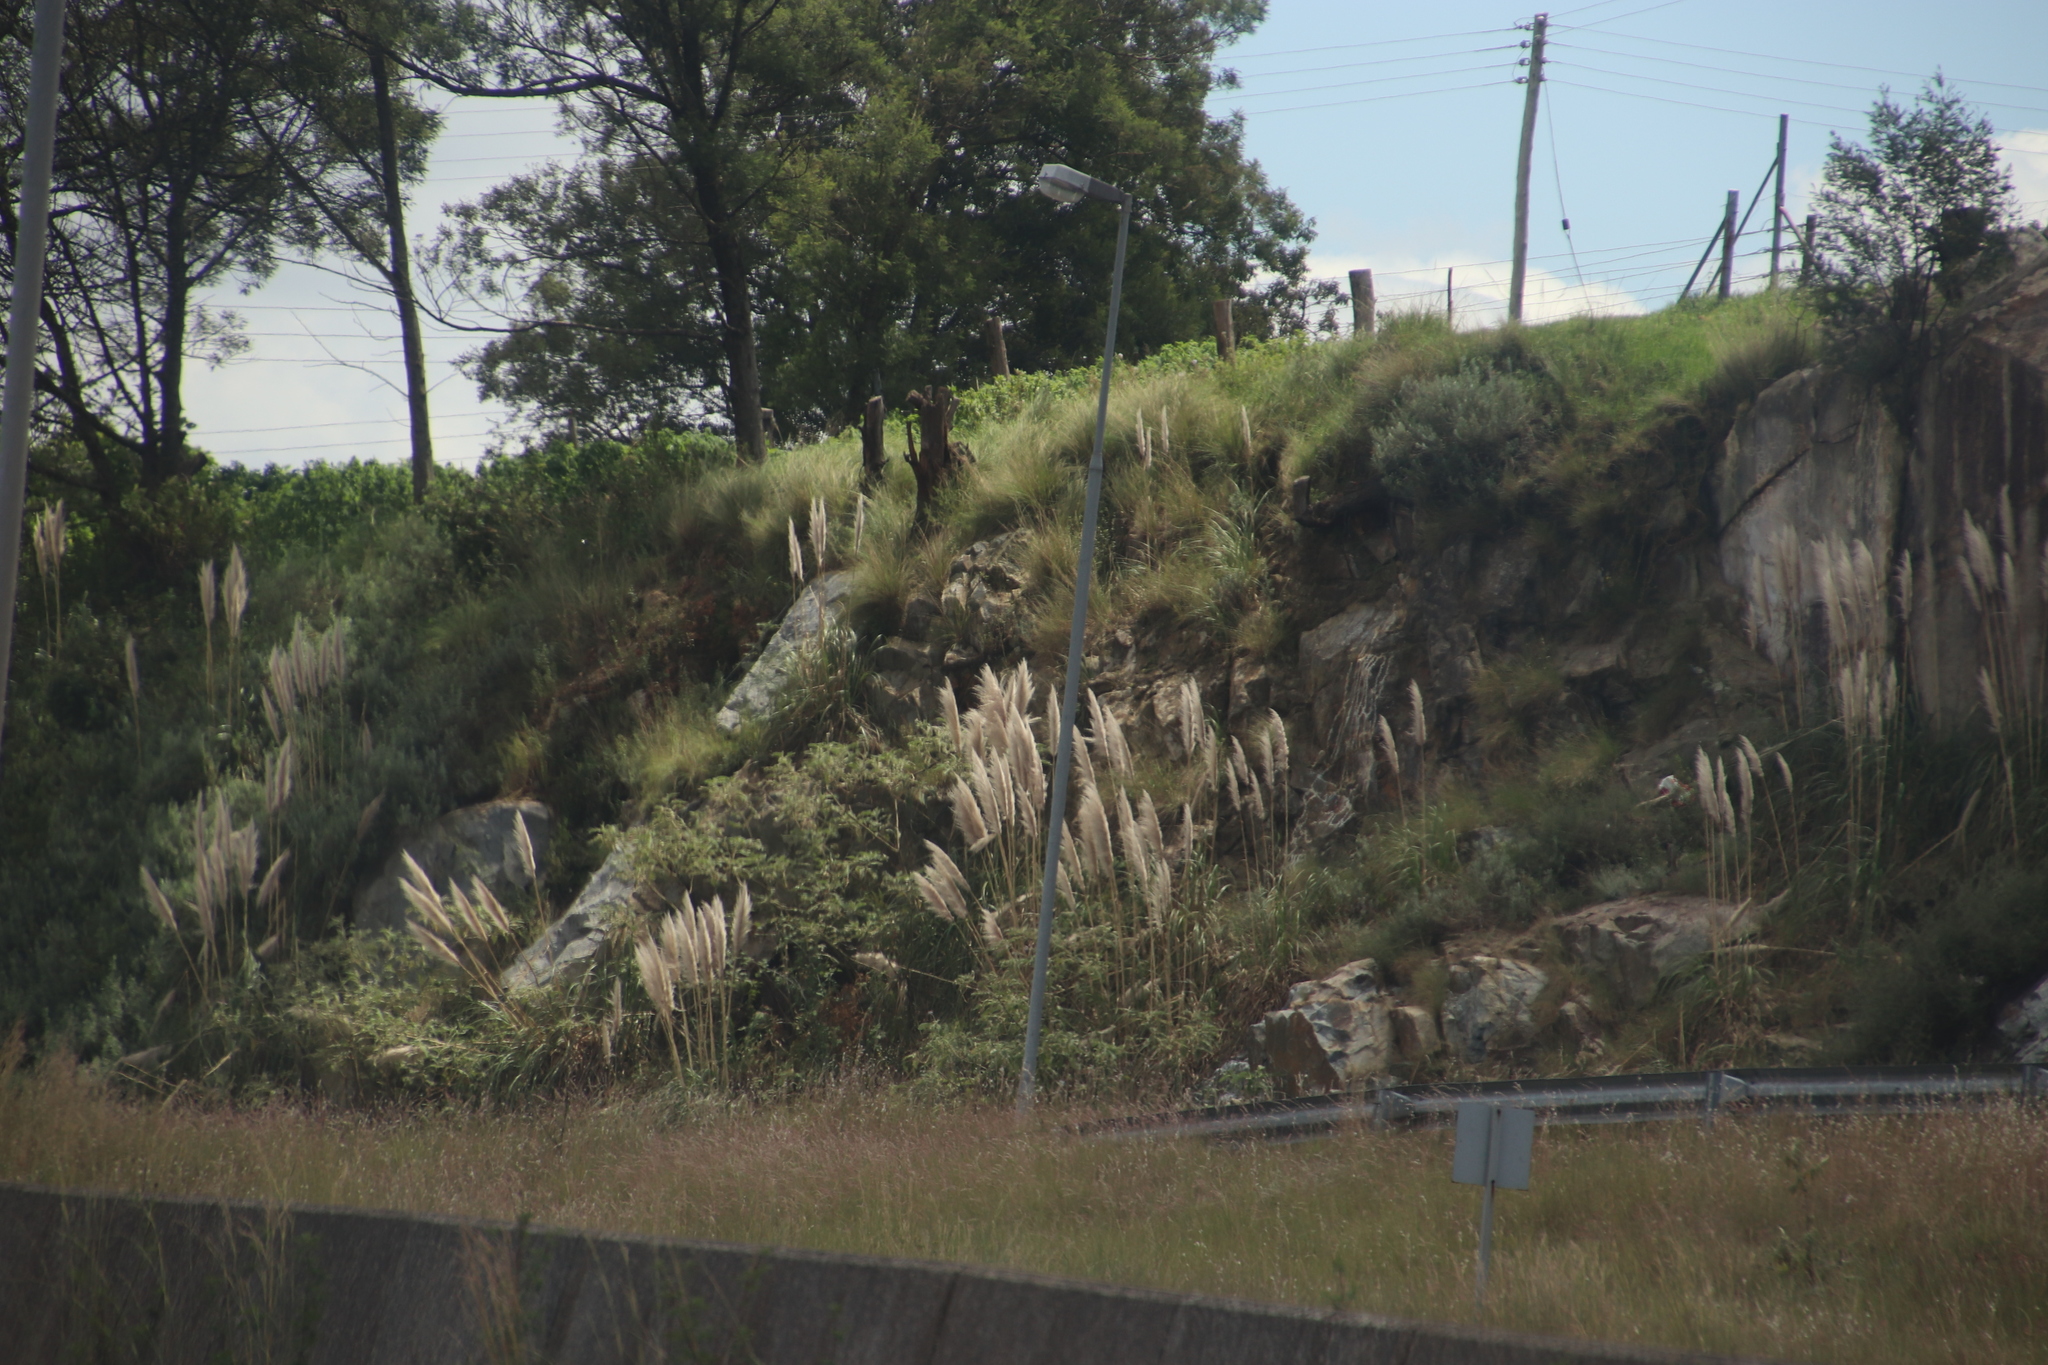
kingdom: Plantae
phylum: Tracheophyta
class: Liliopsida
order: Poales
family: Poaceae
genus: Cortaderia
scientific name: Cortaderia selloana
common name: Uruguayan pampas grass
